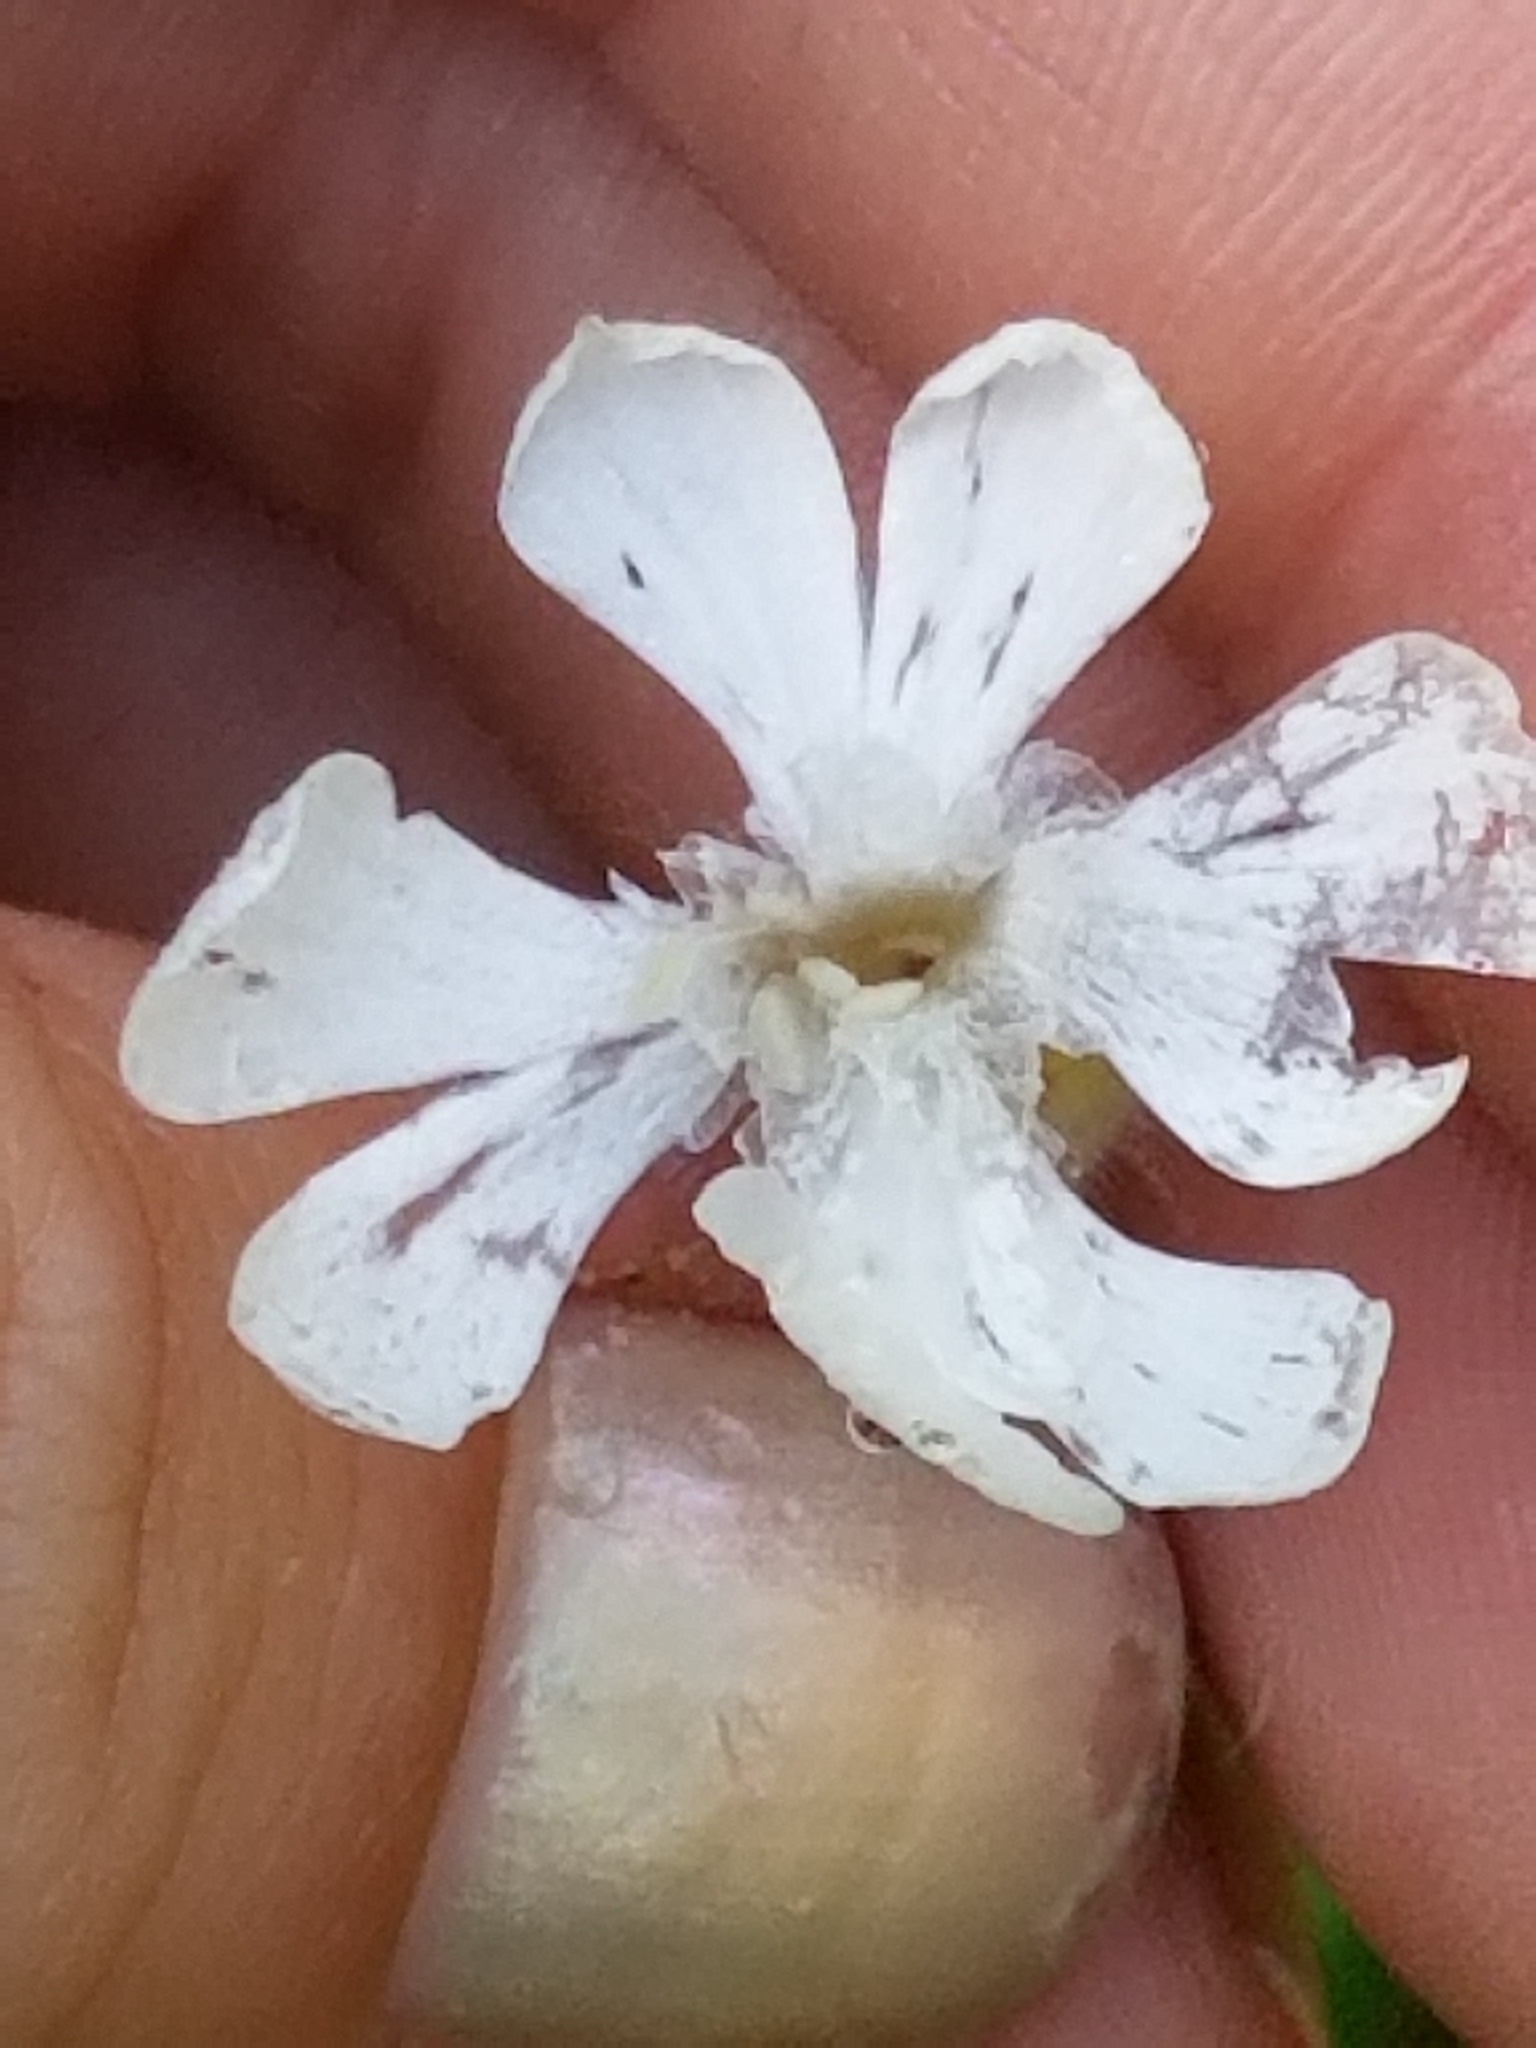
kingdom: Plantae
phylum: Tracheophyta
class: Magnoliopsida
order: Caryophyllales
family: Caryophyllaceae
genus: Silene
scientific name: Silene latifolia
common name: White campion
